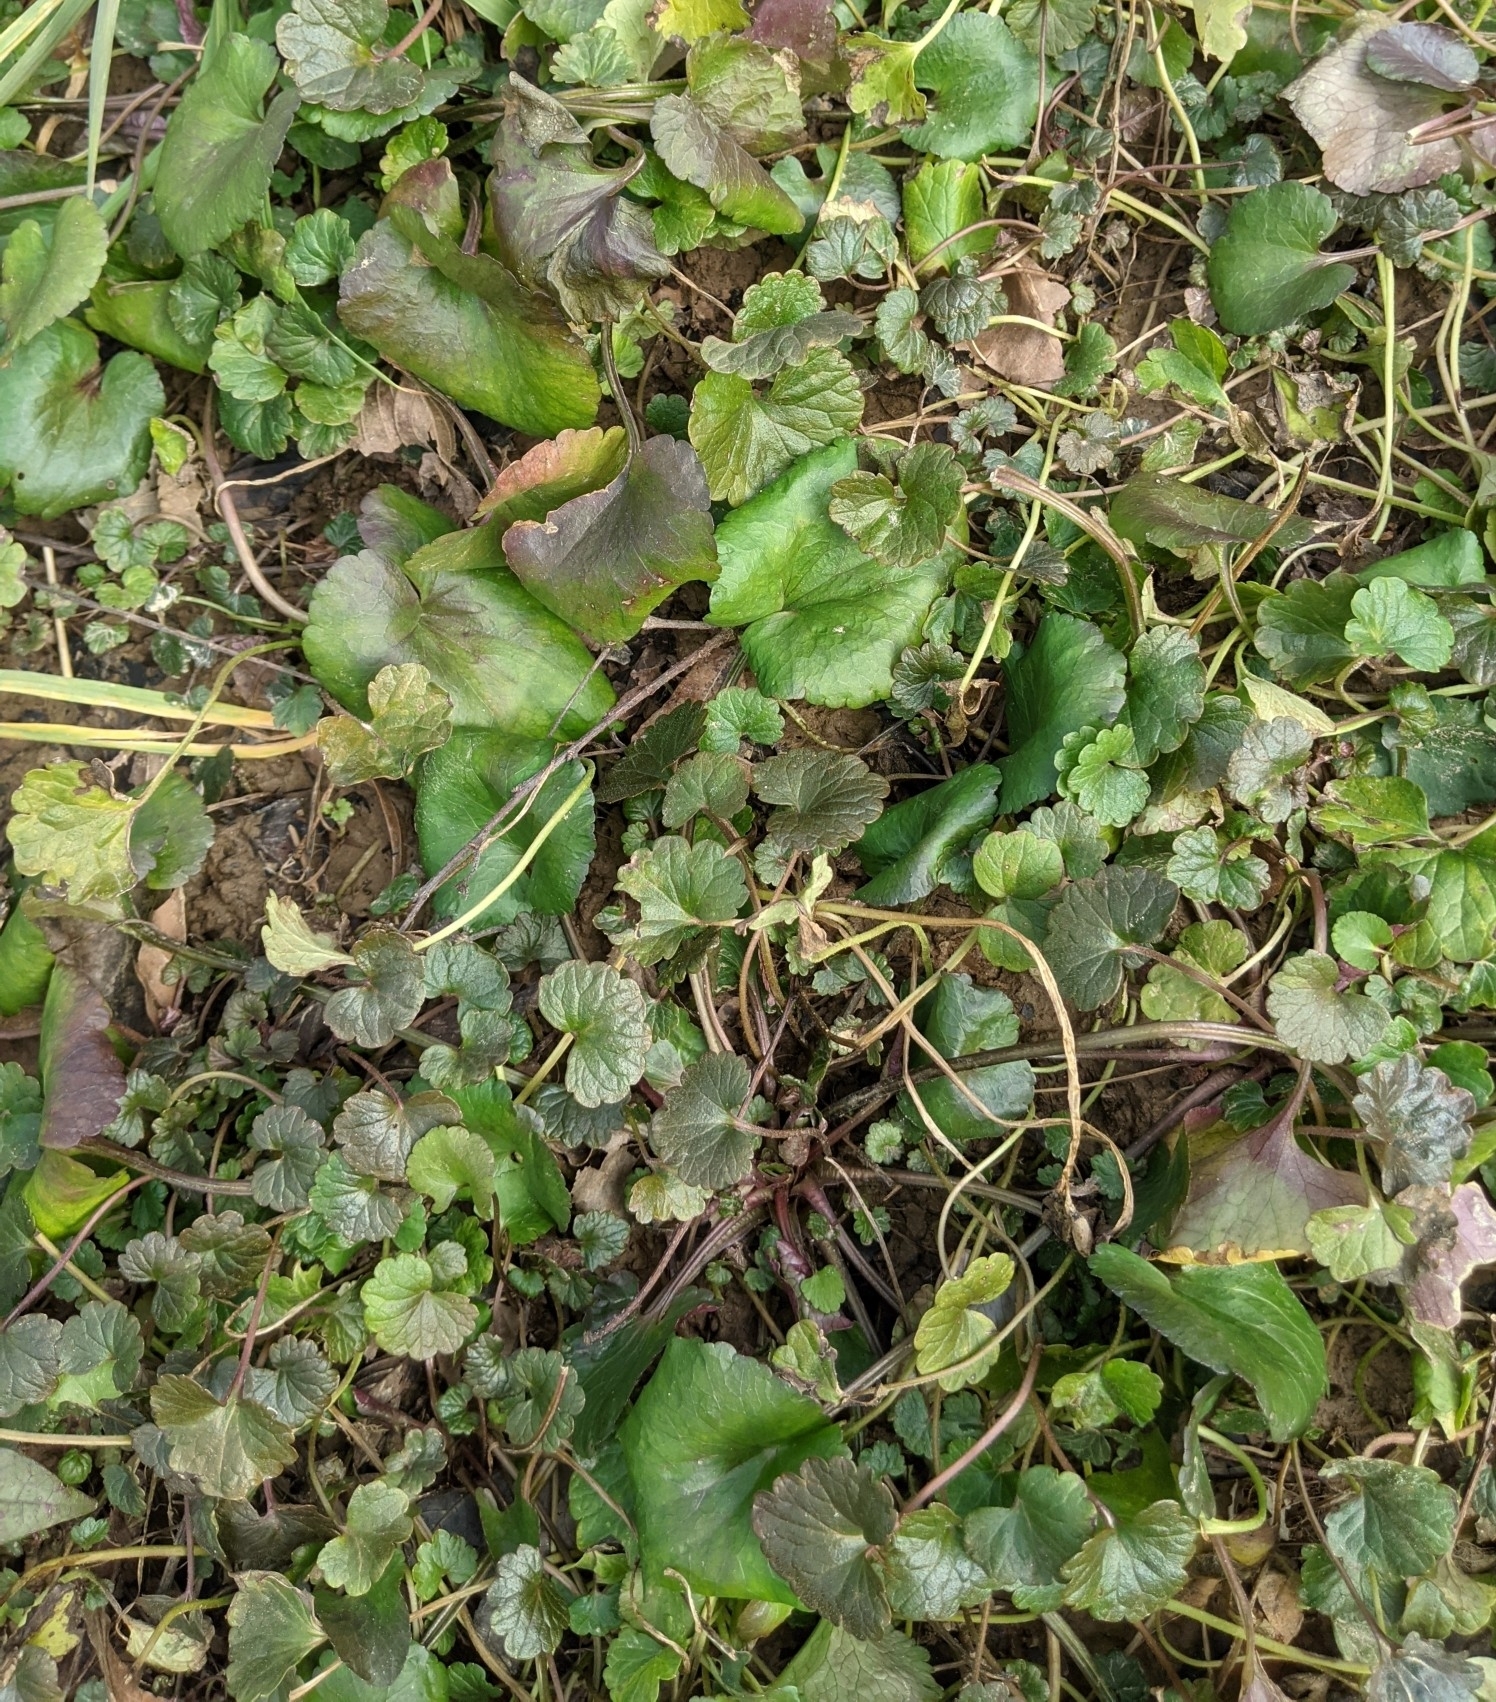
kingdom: Plantae
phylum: Tracheophyta
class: Magnoliopsida
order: Lamiales
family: Lamiaceae
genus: Glechoma
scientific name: Glechoma hederacea
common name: Ground ivy
